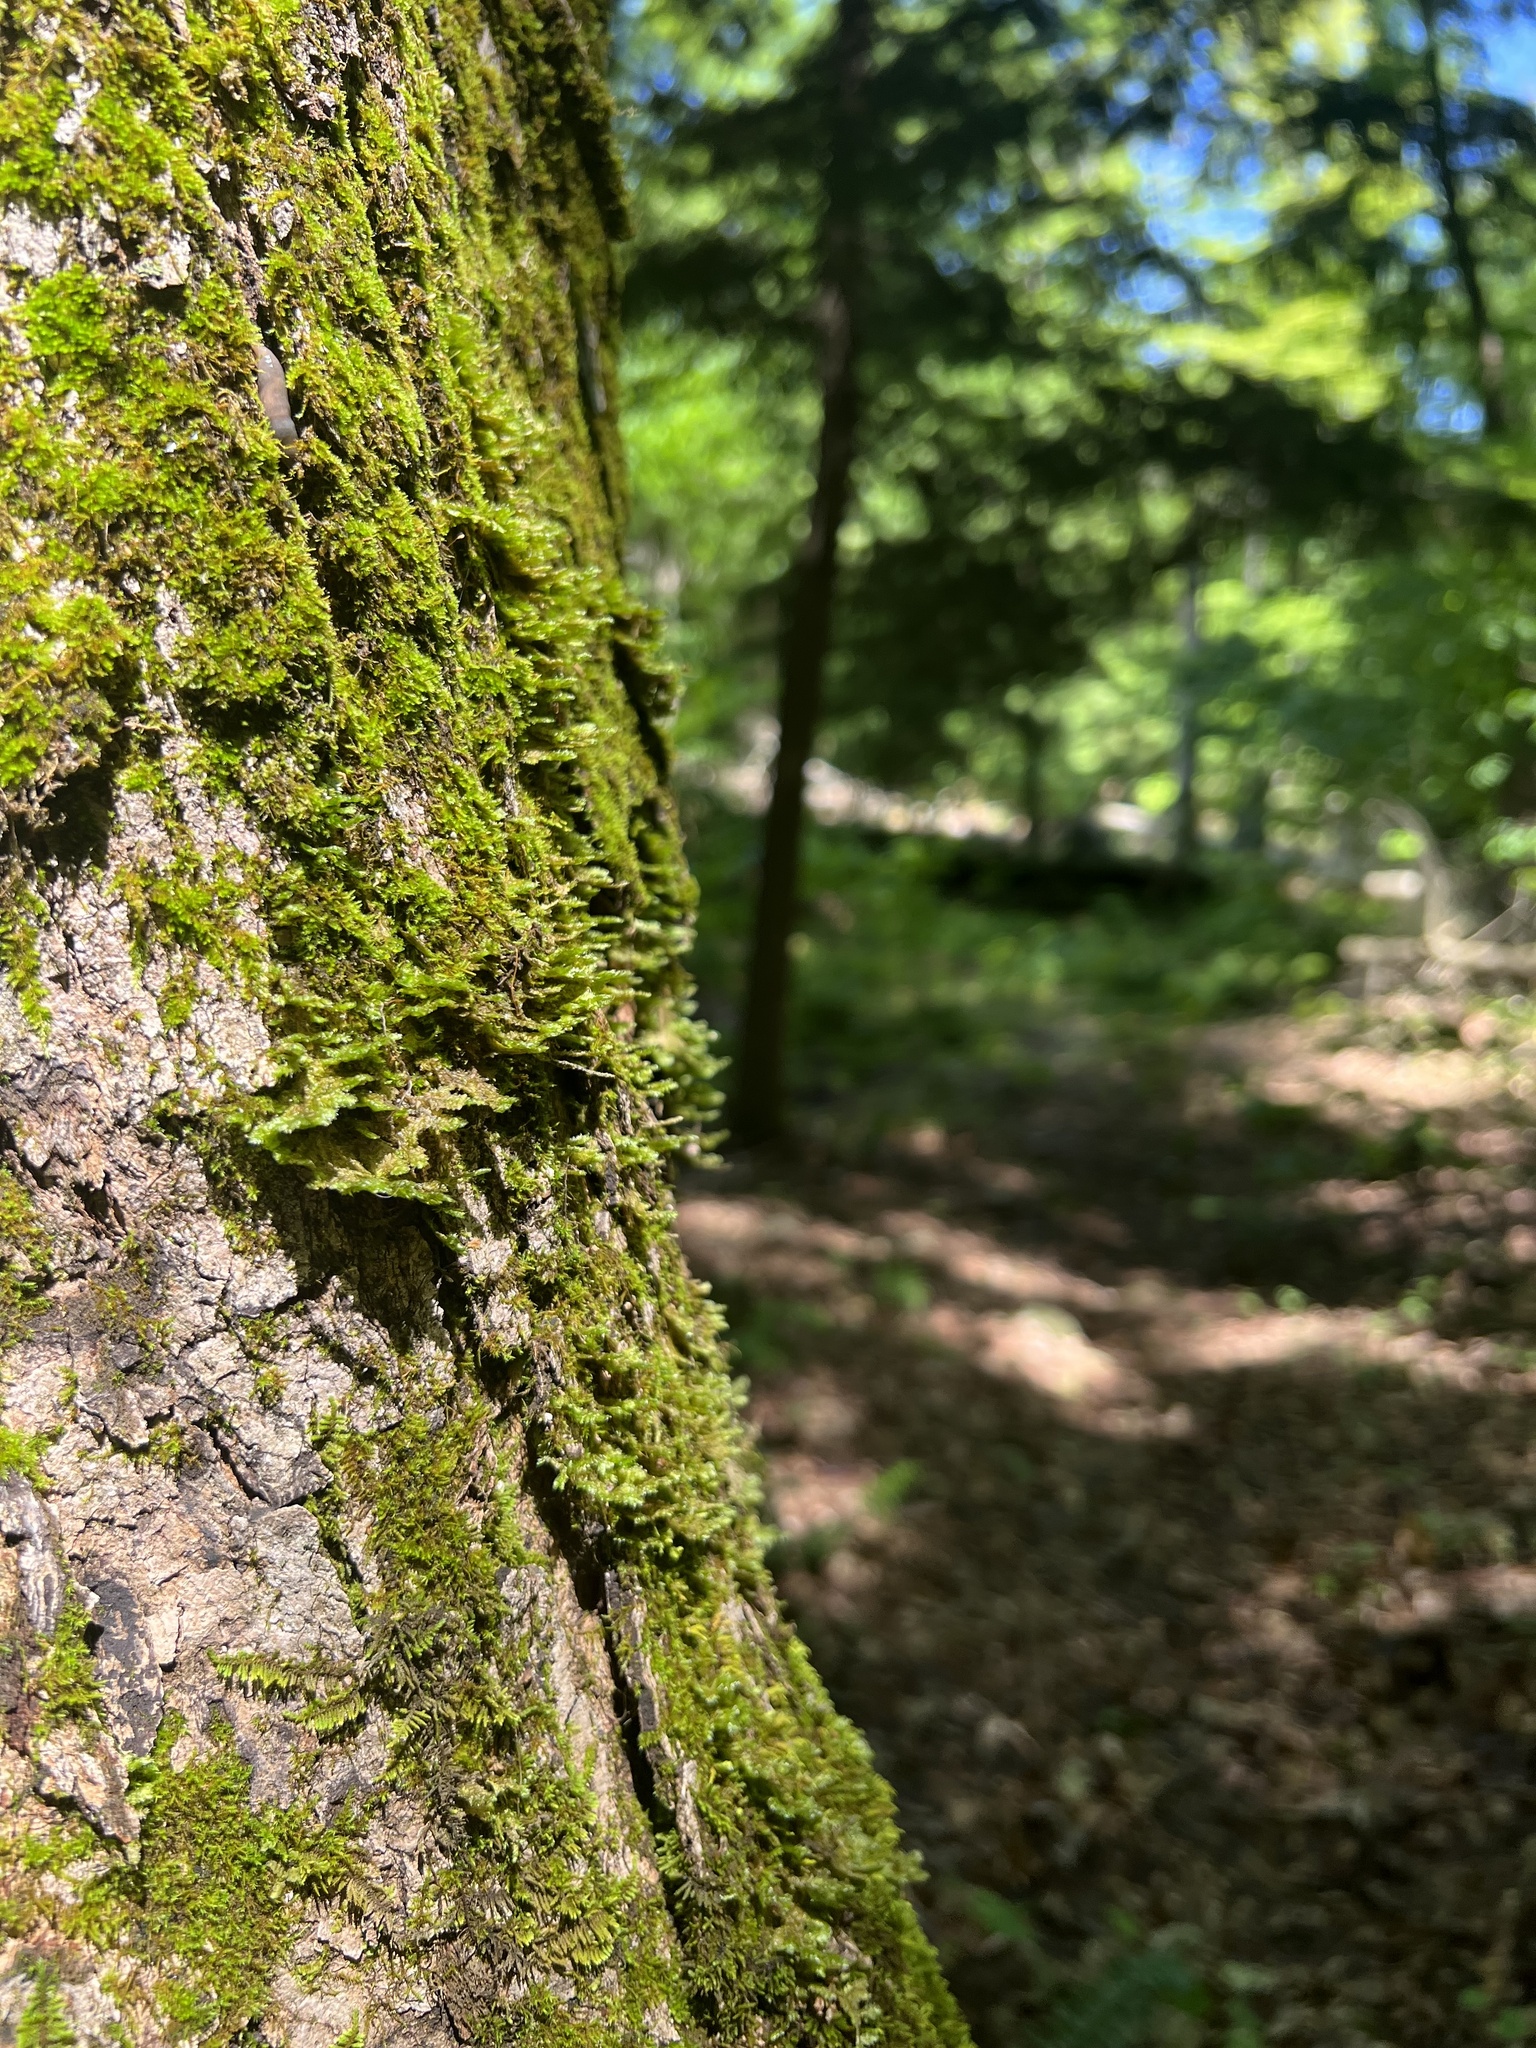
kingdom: Plantae
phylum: Bryophyta
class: Bryopsida
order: Hypnales
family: Neckeraceae
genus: Neckera
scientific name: Neckera pennata
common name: Feathery neckera
